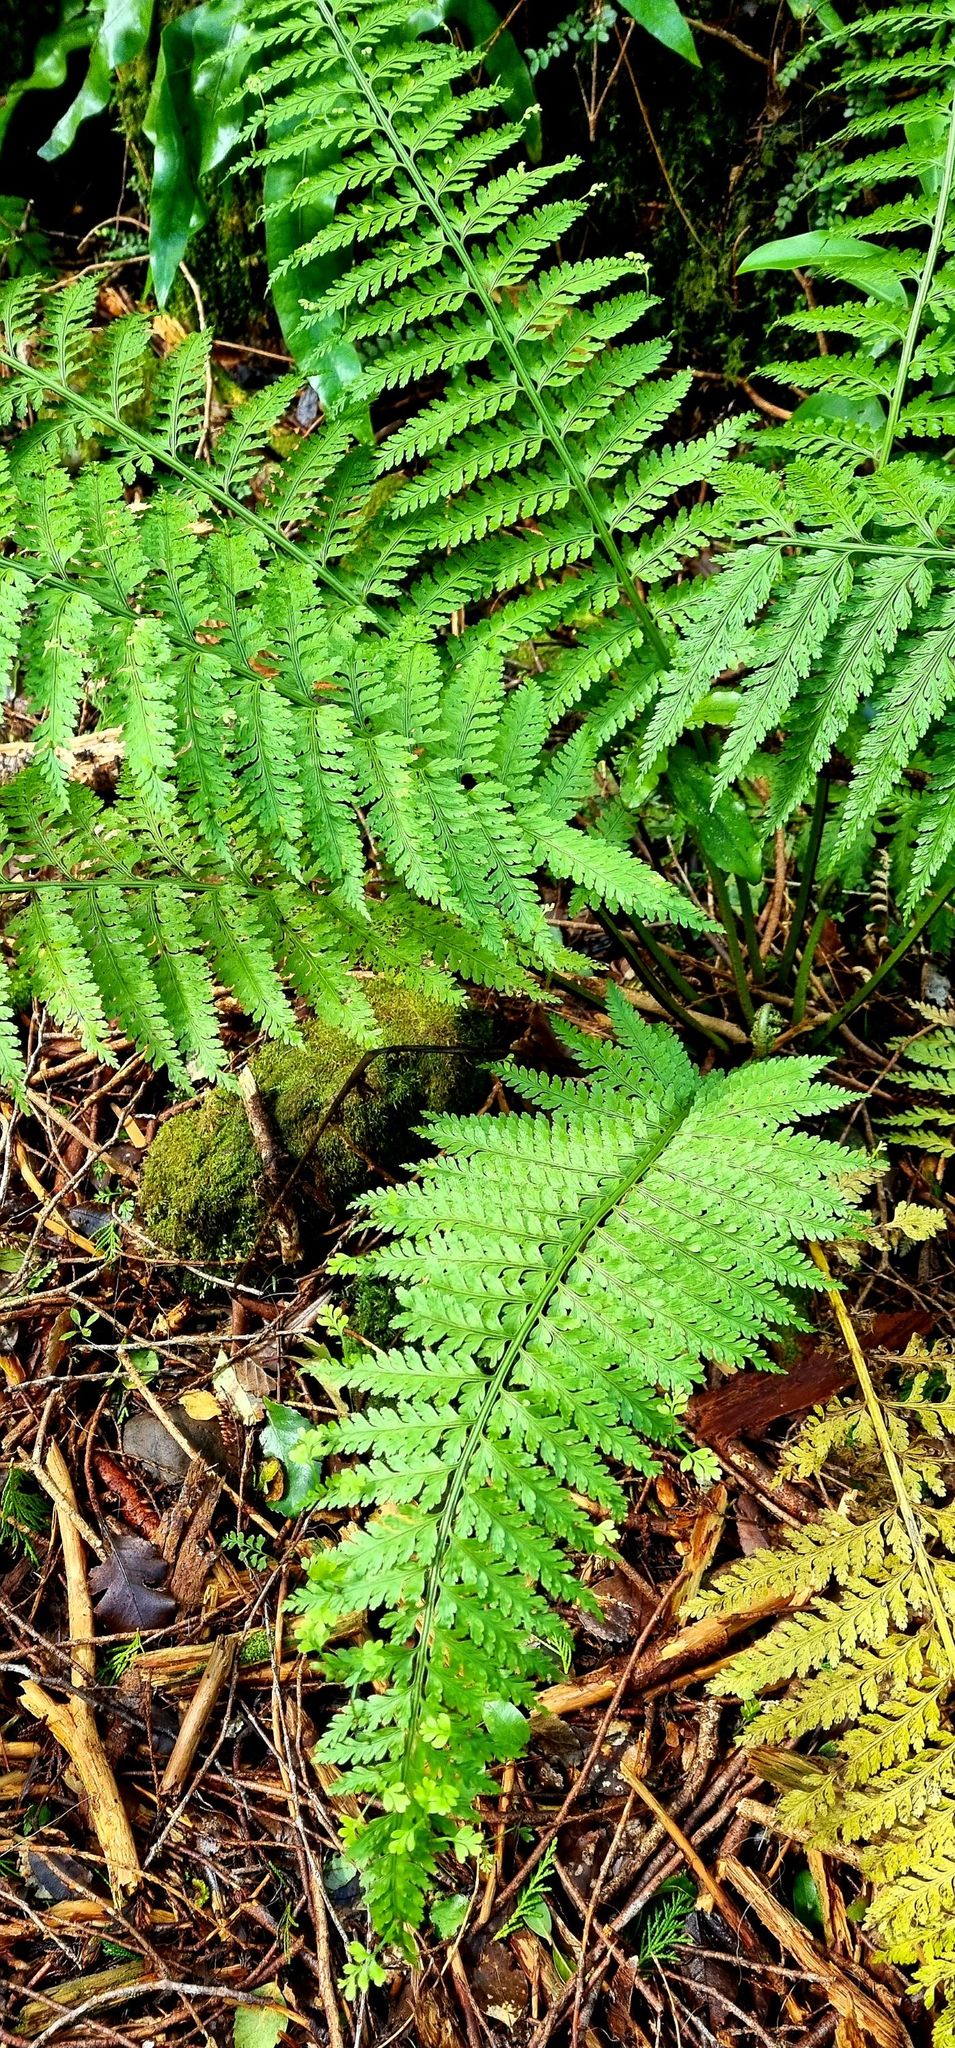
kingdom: Plantae
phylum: Tracheophyta
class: Polypodiopsida
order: Polypodiales
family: Aspleniaceae
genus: Asplenium
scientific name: Asplenium bulbiferum
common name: Mother fern
